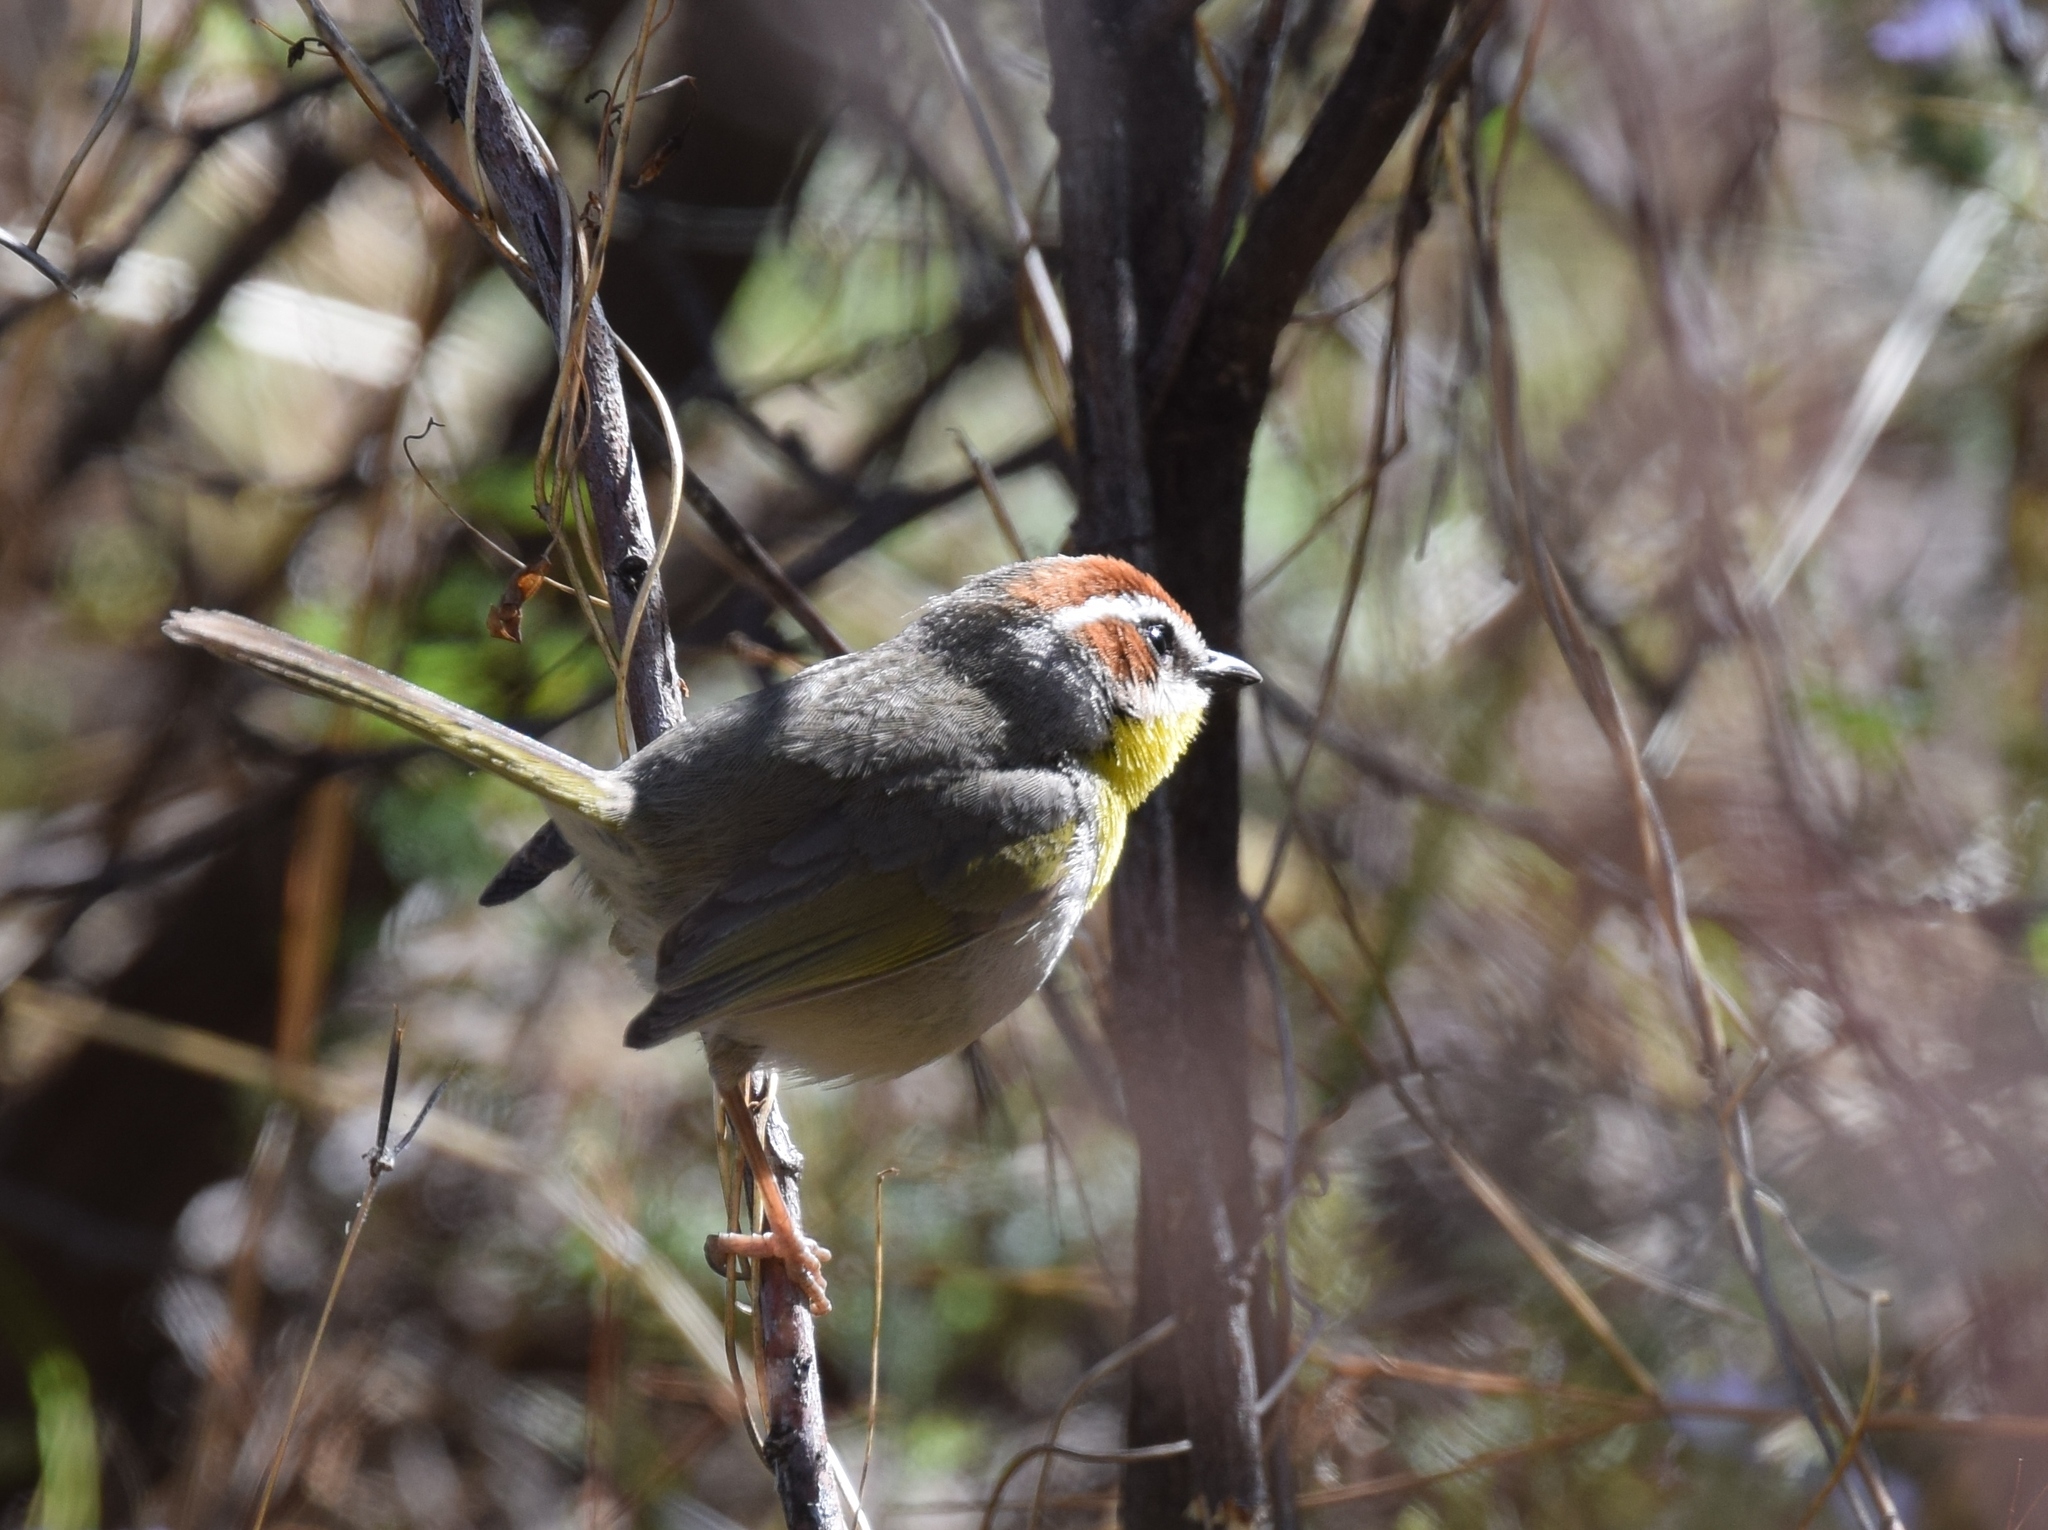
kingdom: Animalia
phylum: Chordata
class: Aves
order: Passeriformes
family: Parulidae
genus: Basileuterus
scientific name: Basileuterus rufifrons
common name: Rufous-capped warbler
